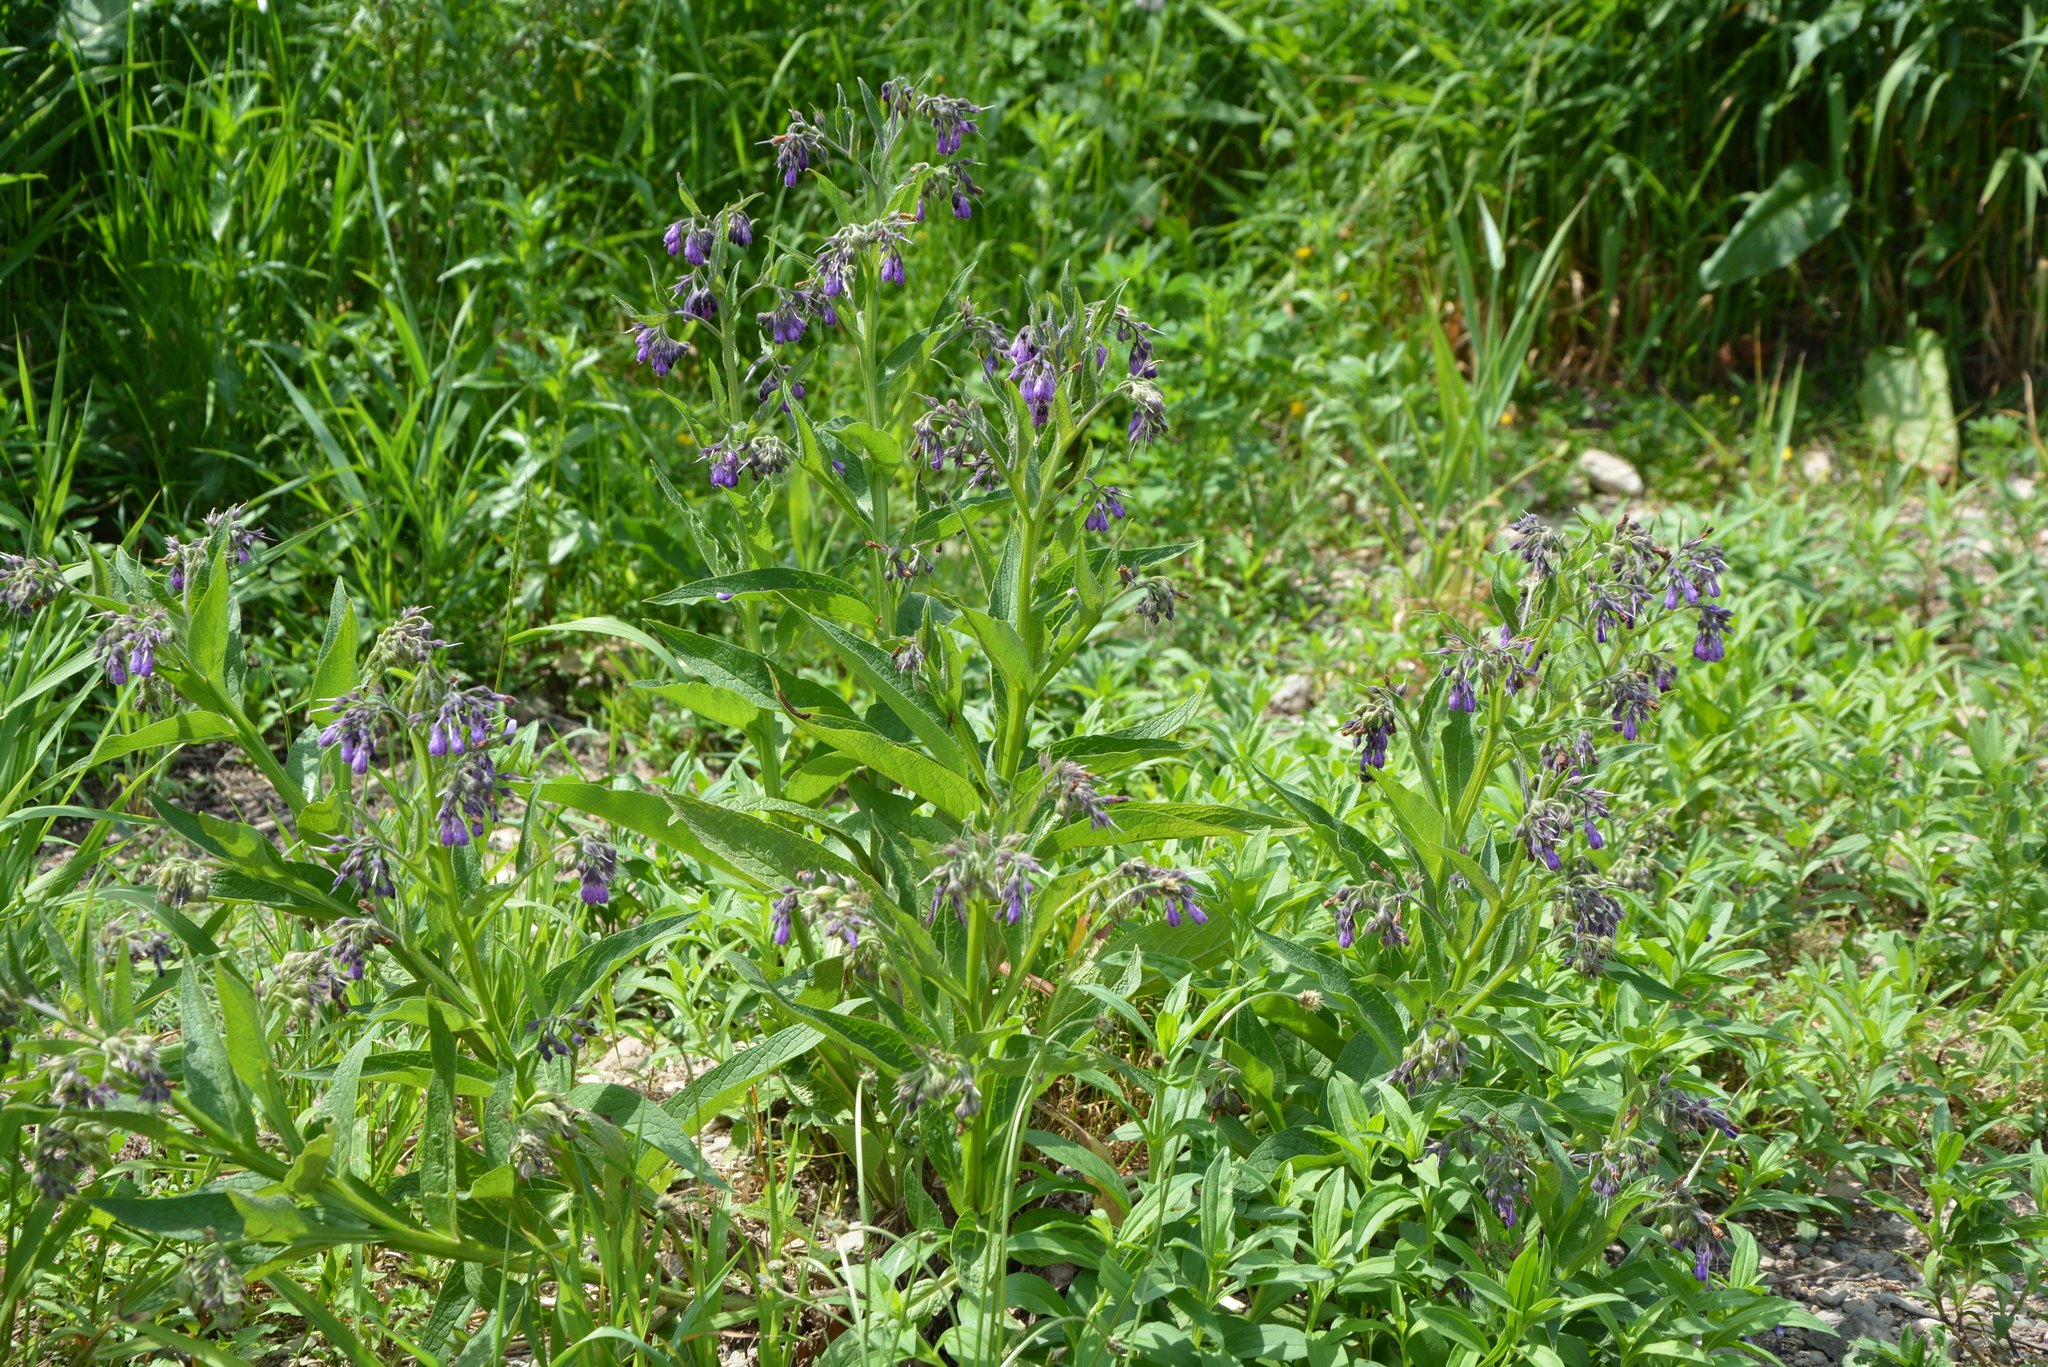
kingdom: Plantae
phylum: Tracheophyta
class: Magnoliopsida
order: Boraginales
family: Boraginaceae
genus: Symphytum
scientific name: Symphytum officinale
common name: Common comfrey
